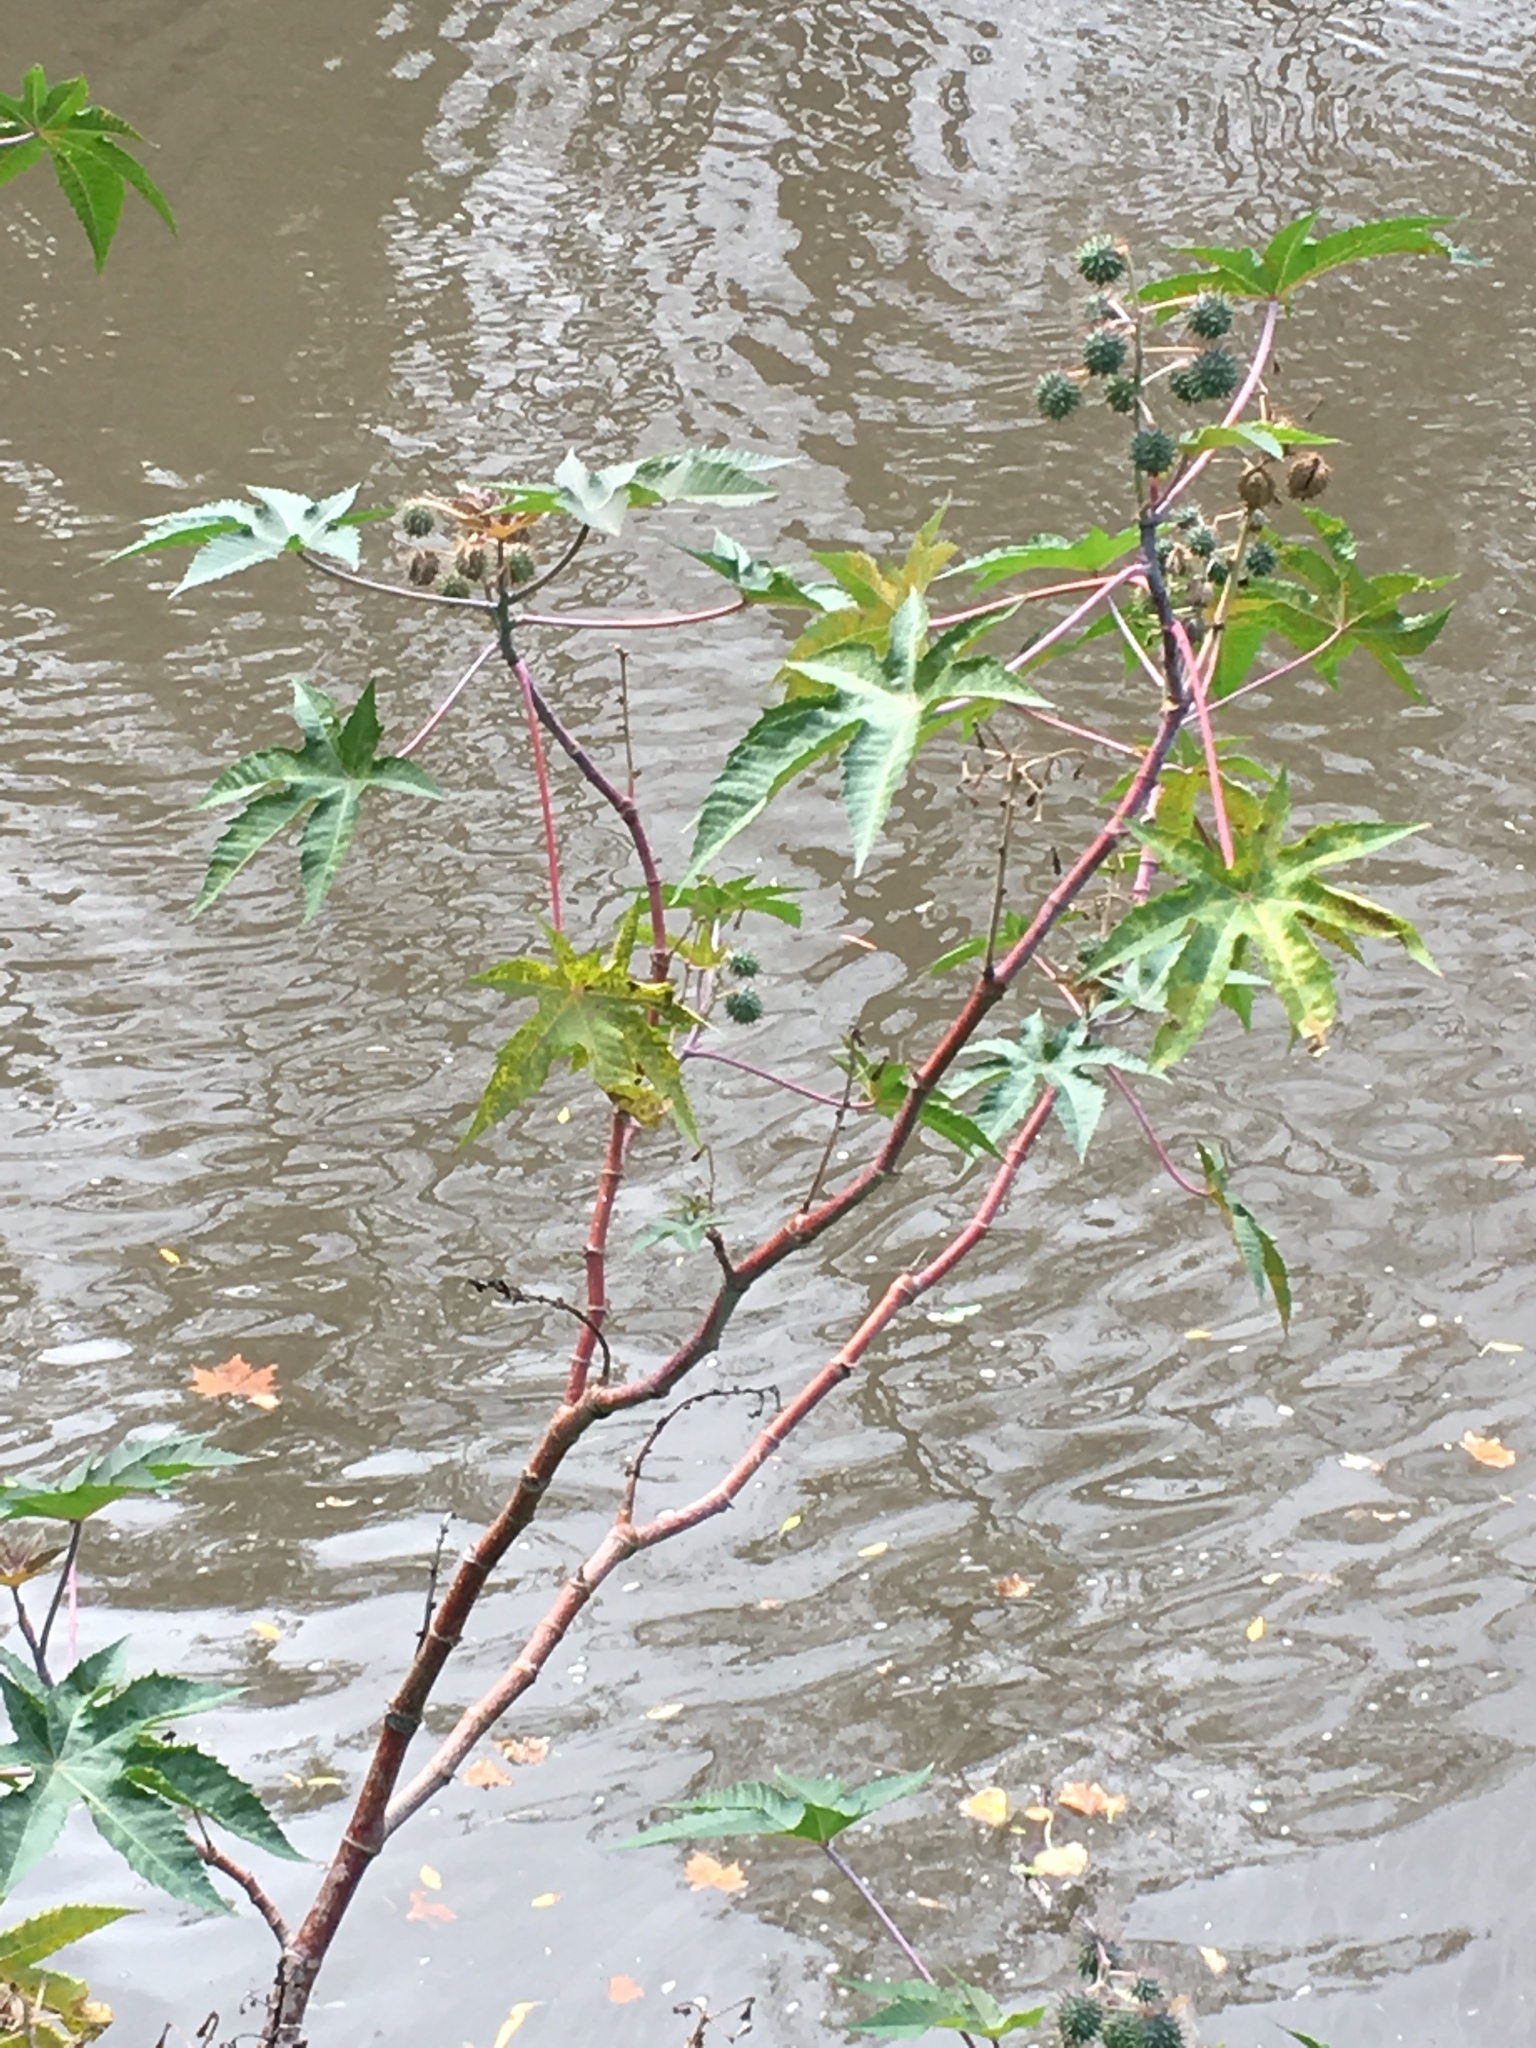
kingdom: Plantae
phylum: Tracheophyta
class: Magnoliopsida
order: Malpighiales
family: Euphorbiaceae
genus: Ricinus
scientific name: Ricinus communis
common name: Castor-oil-plant
